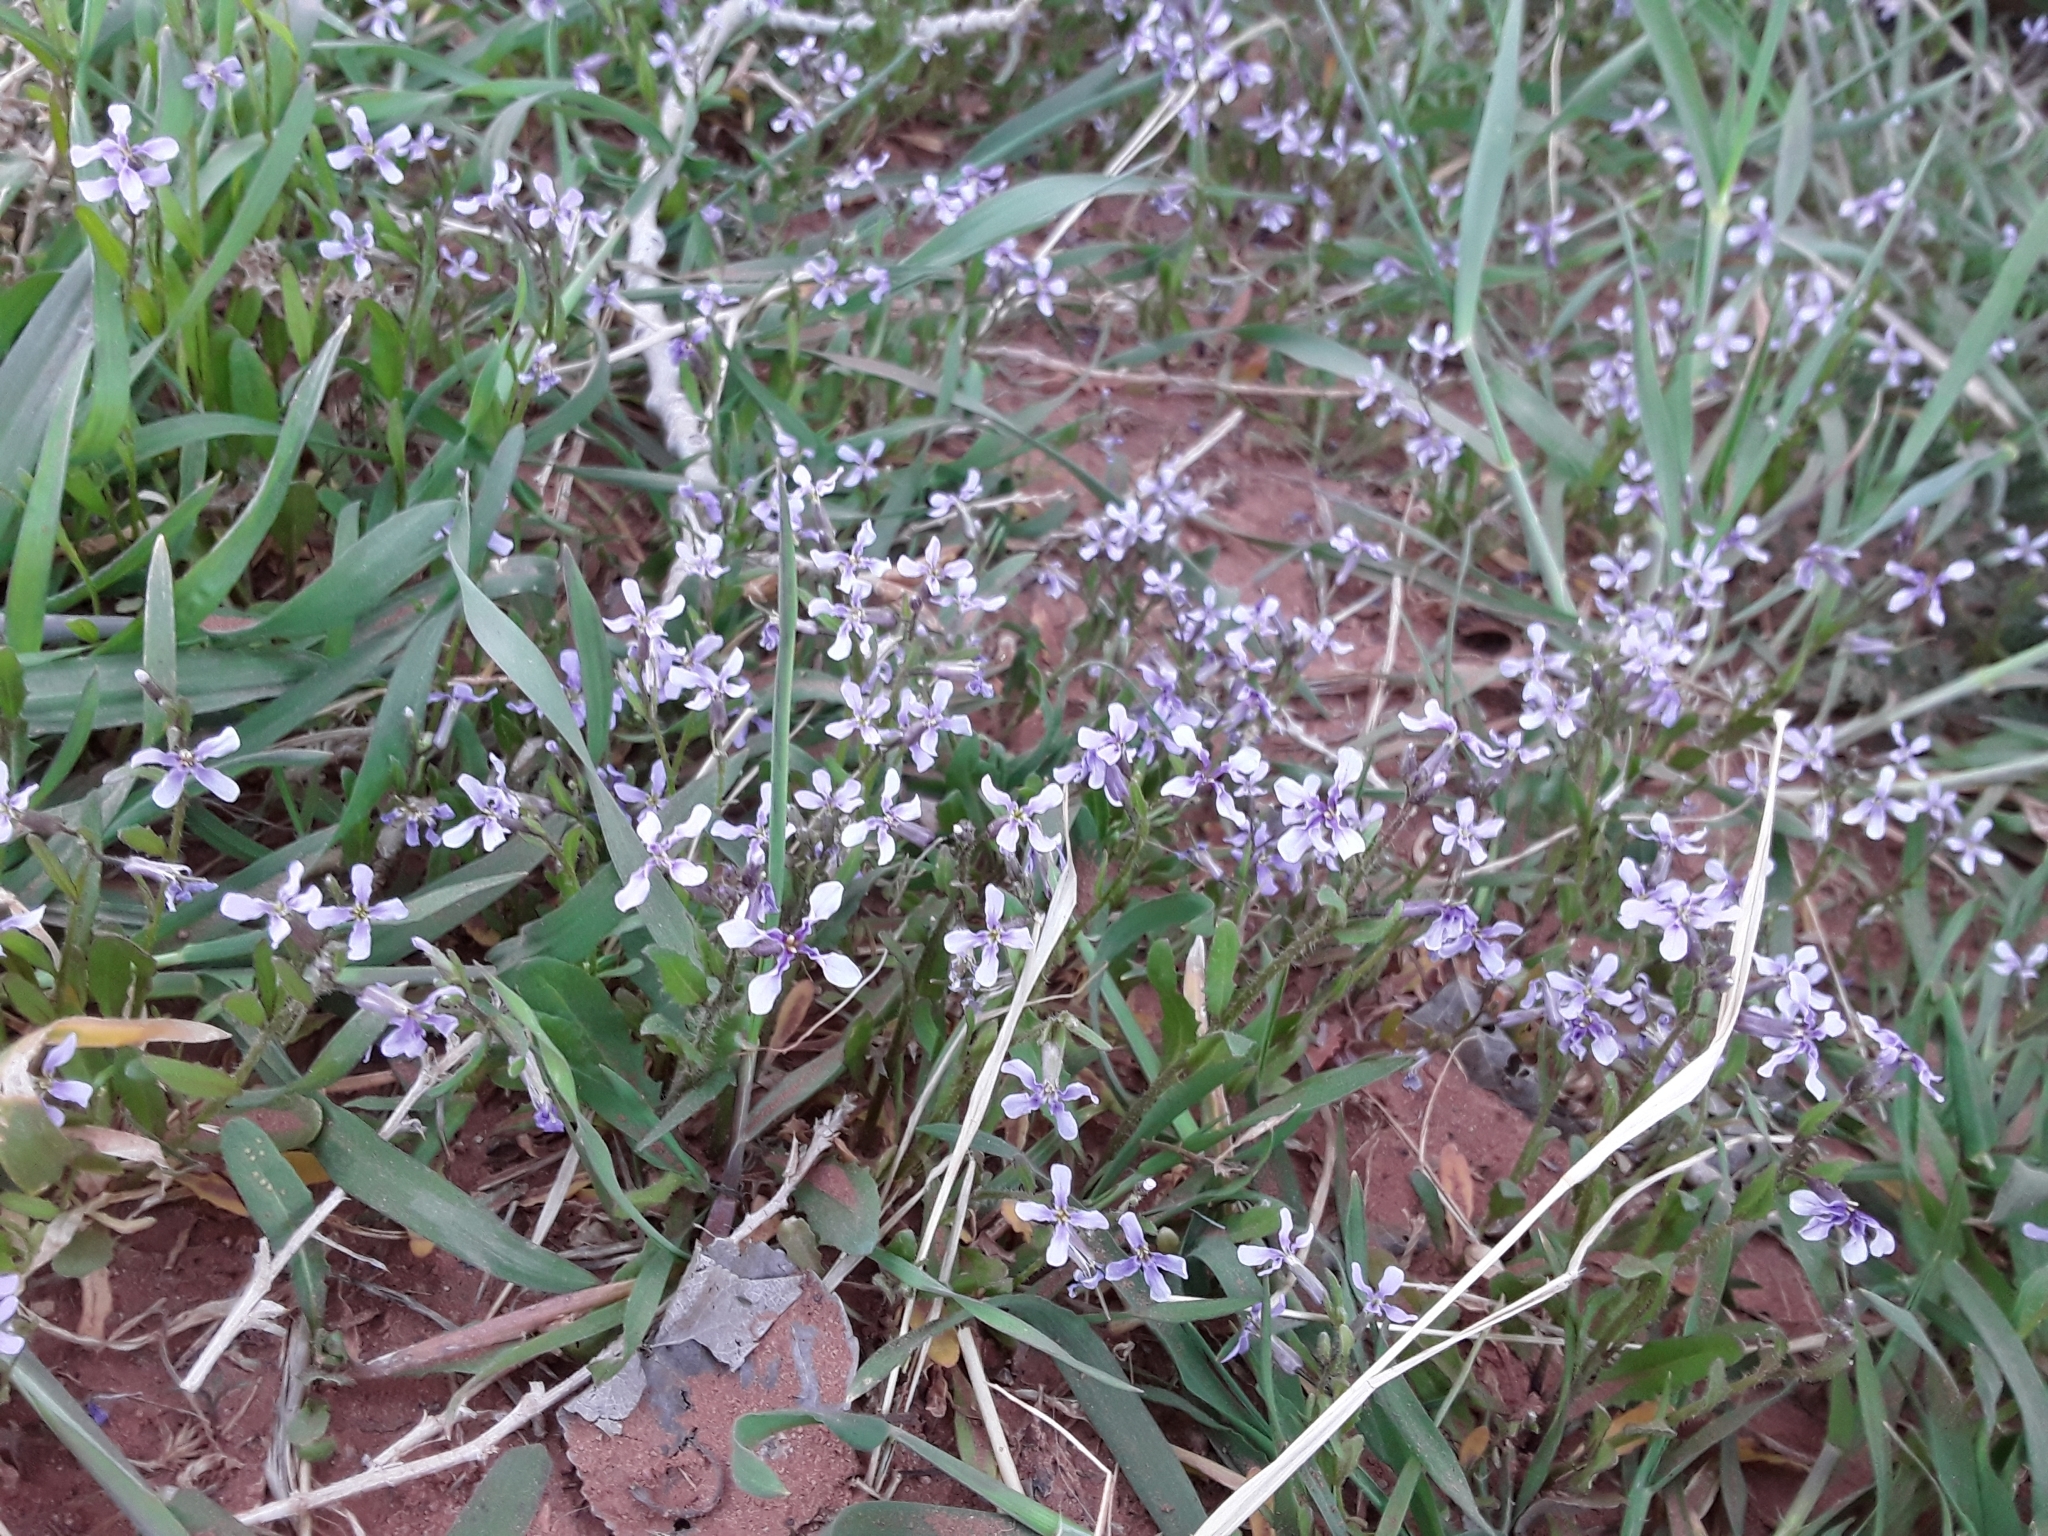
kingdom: Plantae
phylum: Tracheophyta
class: Magnoliopsida
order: Brassicales
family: Brassicaceae
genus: Chorispora
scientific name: Chorispora tenella
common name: Crossflower
